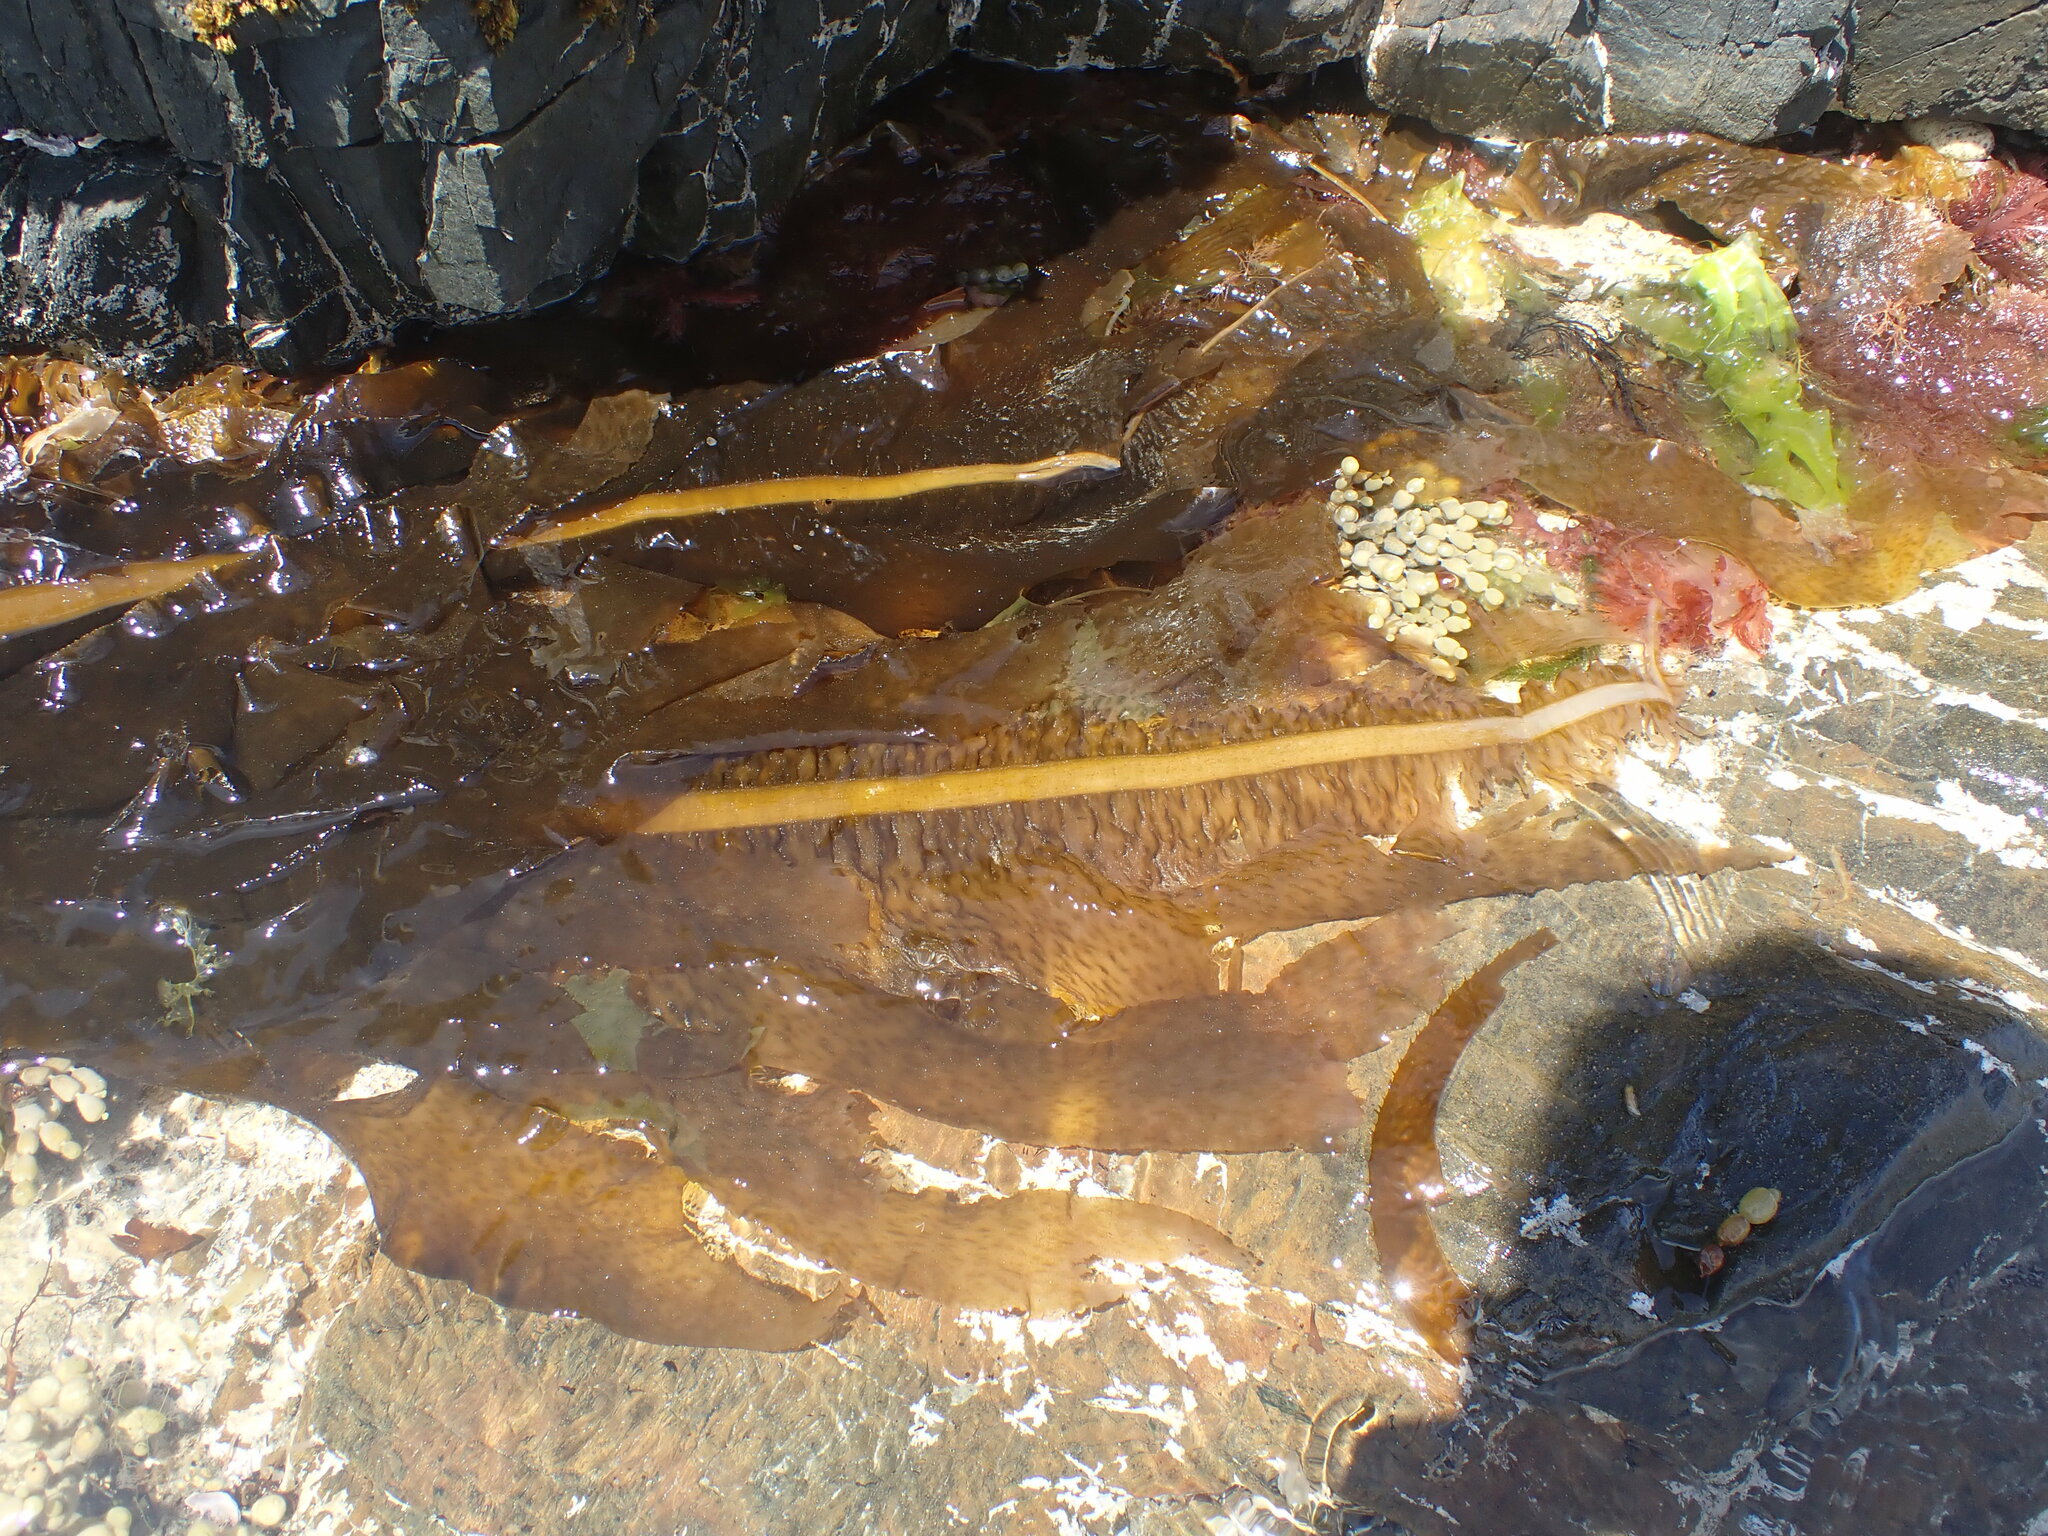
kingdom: Chromista
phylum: Ochrophyta
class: Phaeophyceae
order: Laminariales
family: Alariaceae
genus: Undaria
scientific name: Undaria pinnatifida
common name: Asian kelp
